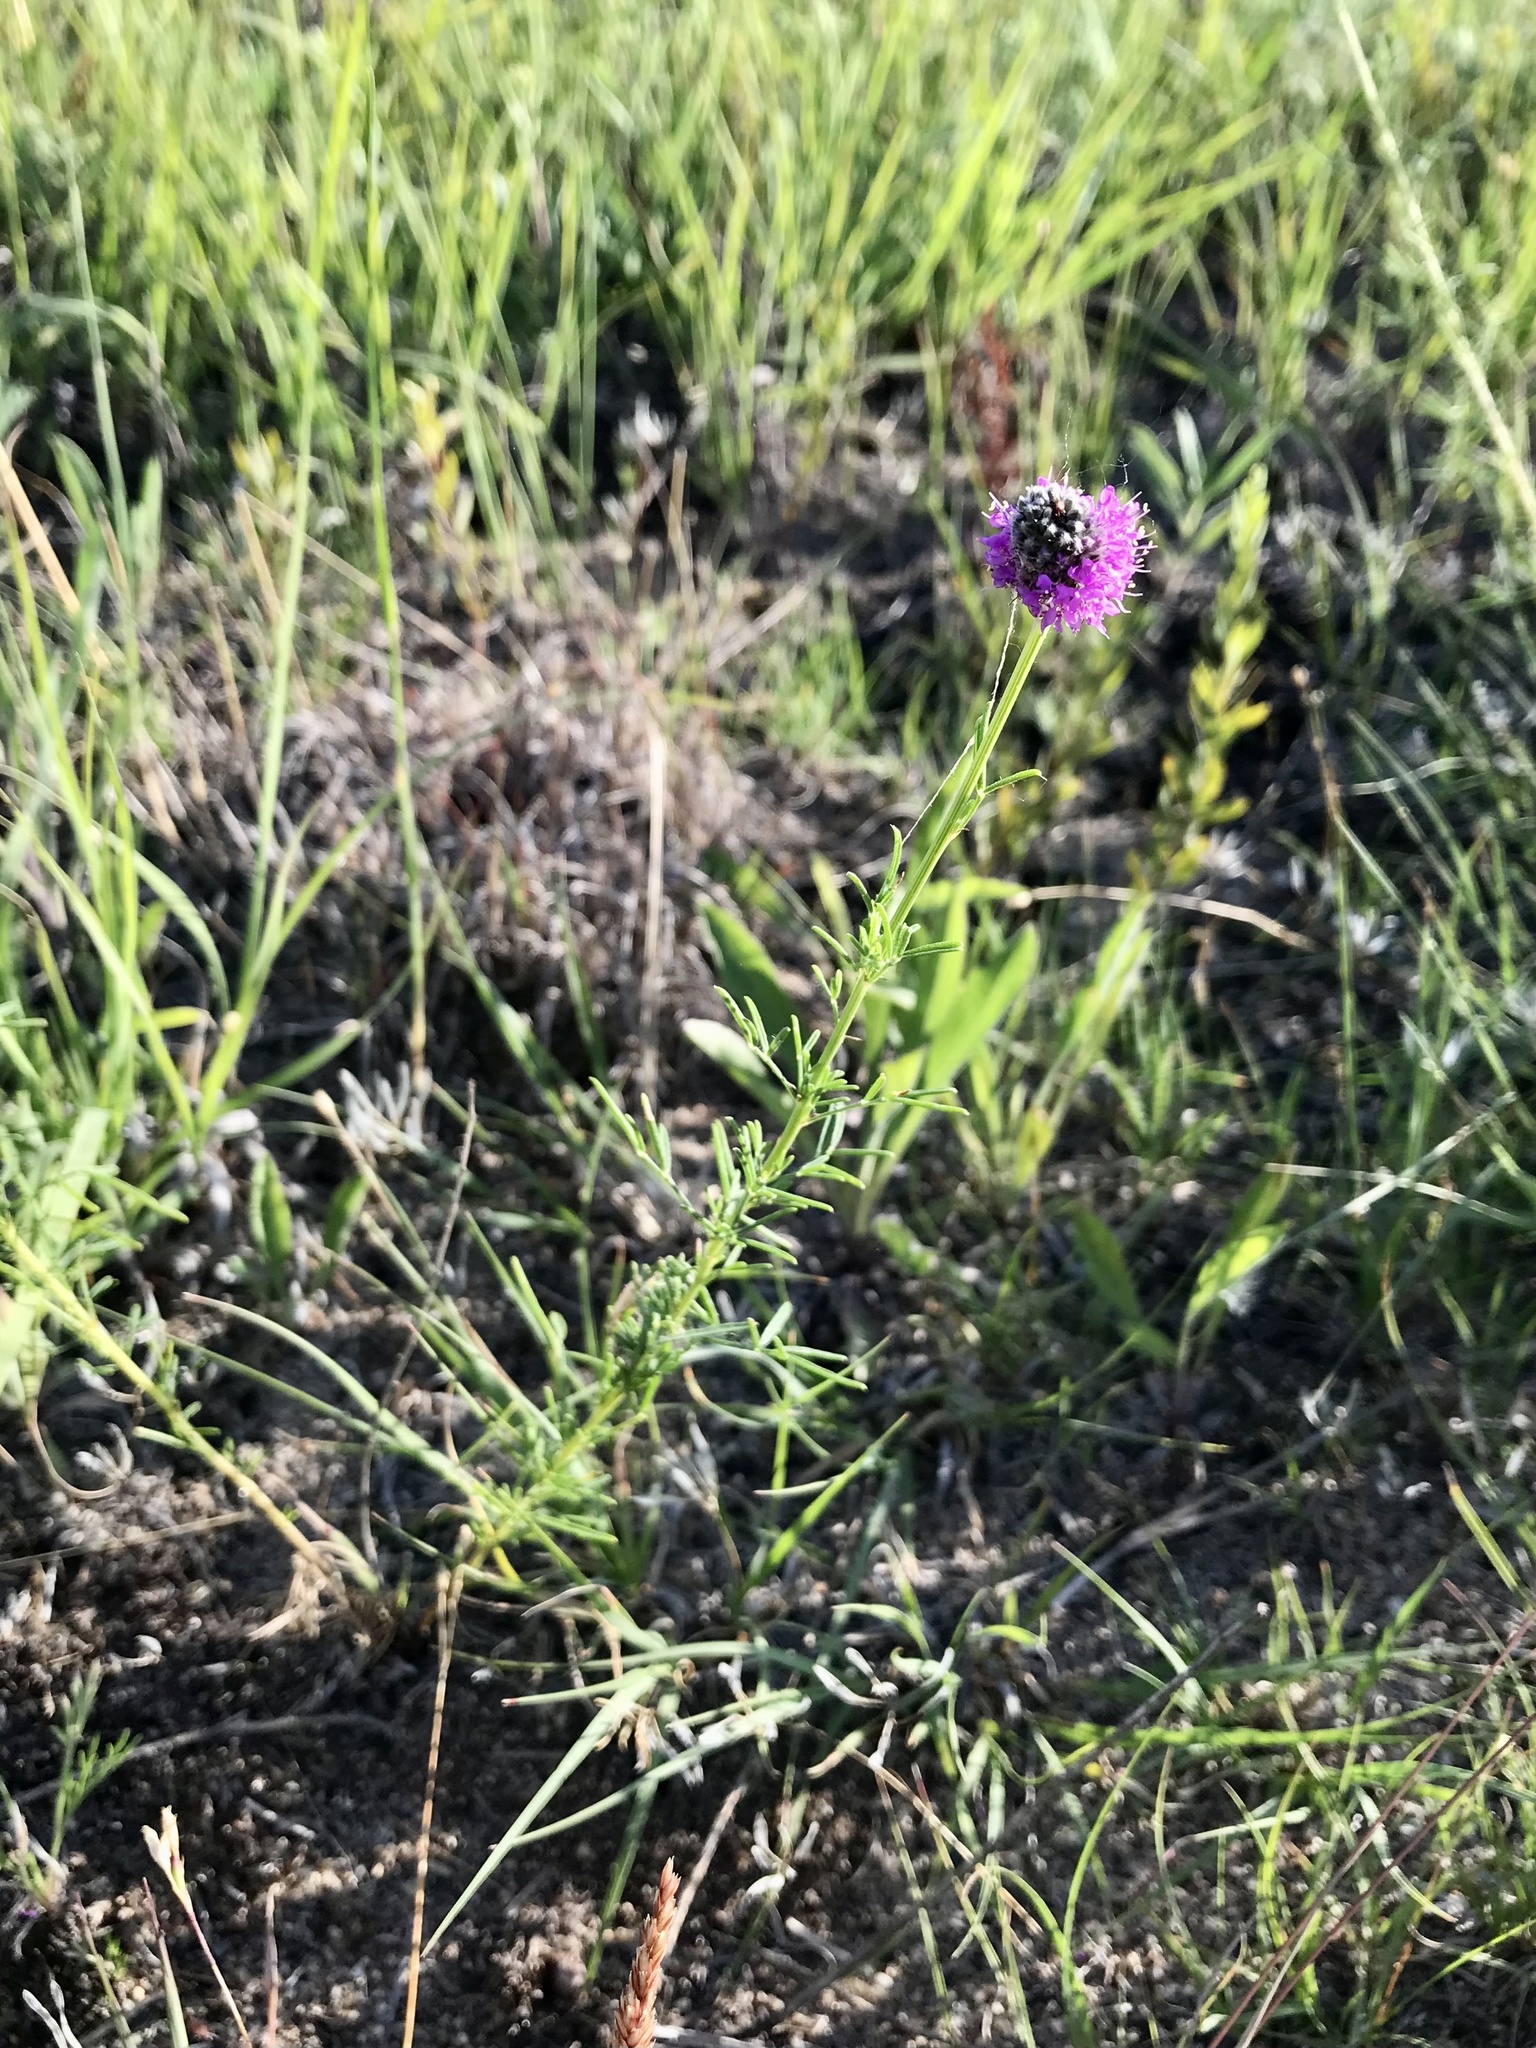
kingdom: Plantae
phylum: Tracheophyta
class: Magnoliopsida
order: Fabales
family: Fabaceae
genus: Dalea
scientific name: Dalea purpurea
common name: Purple prairie-clover
